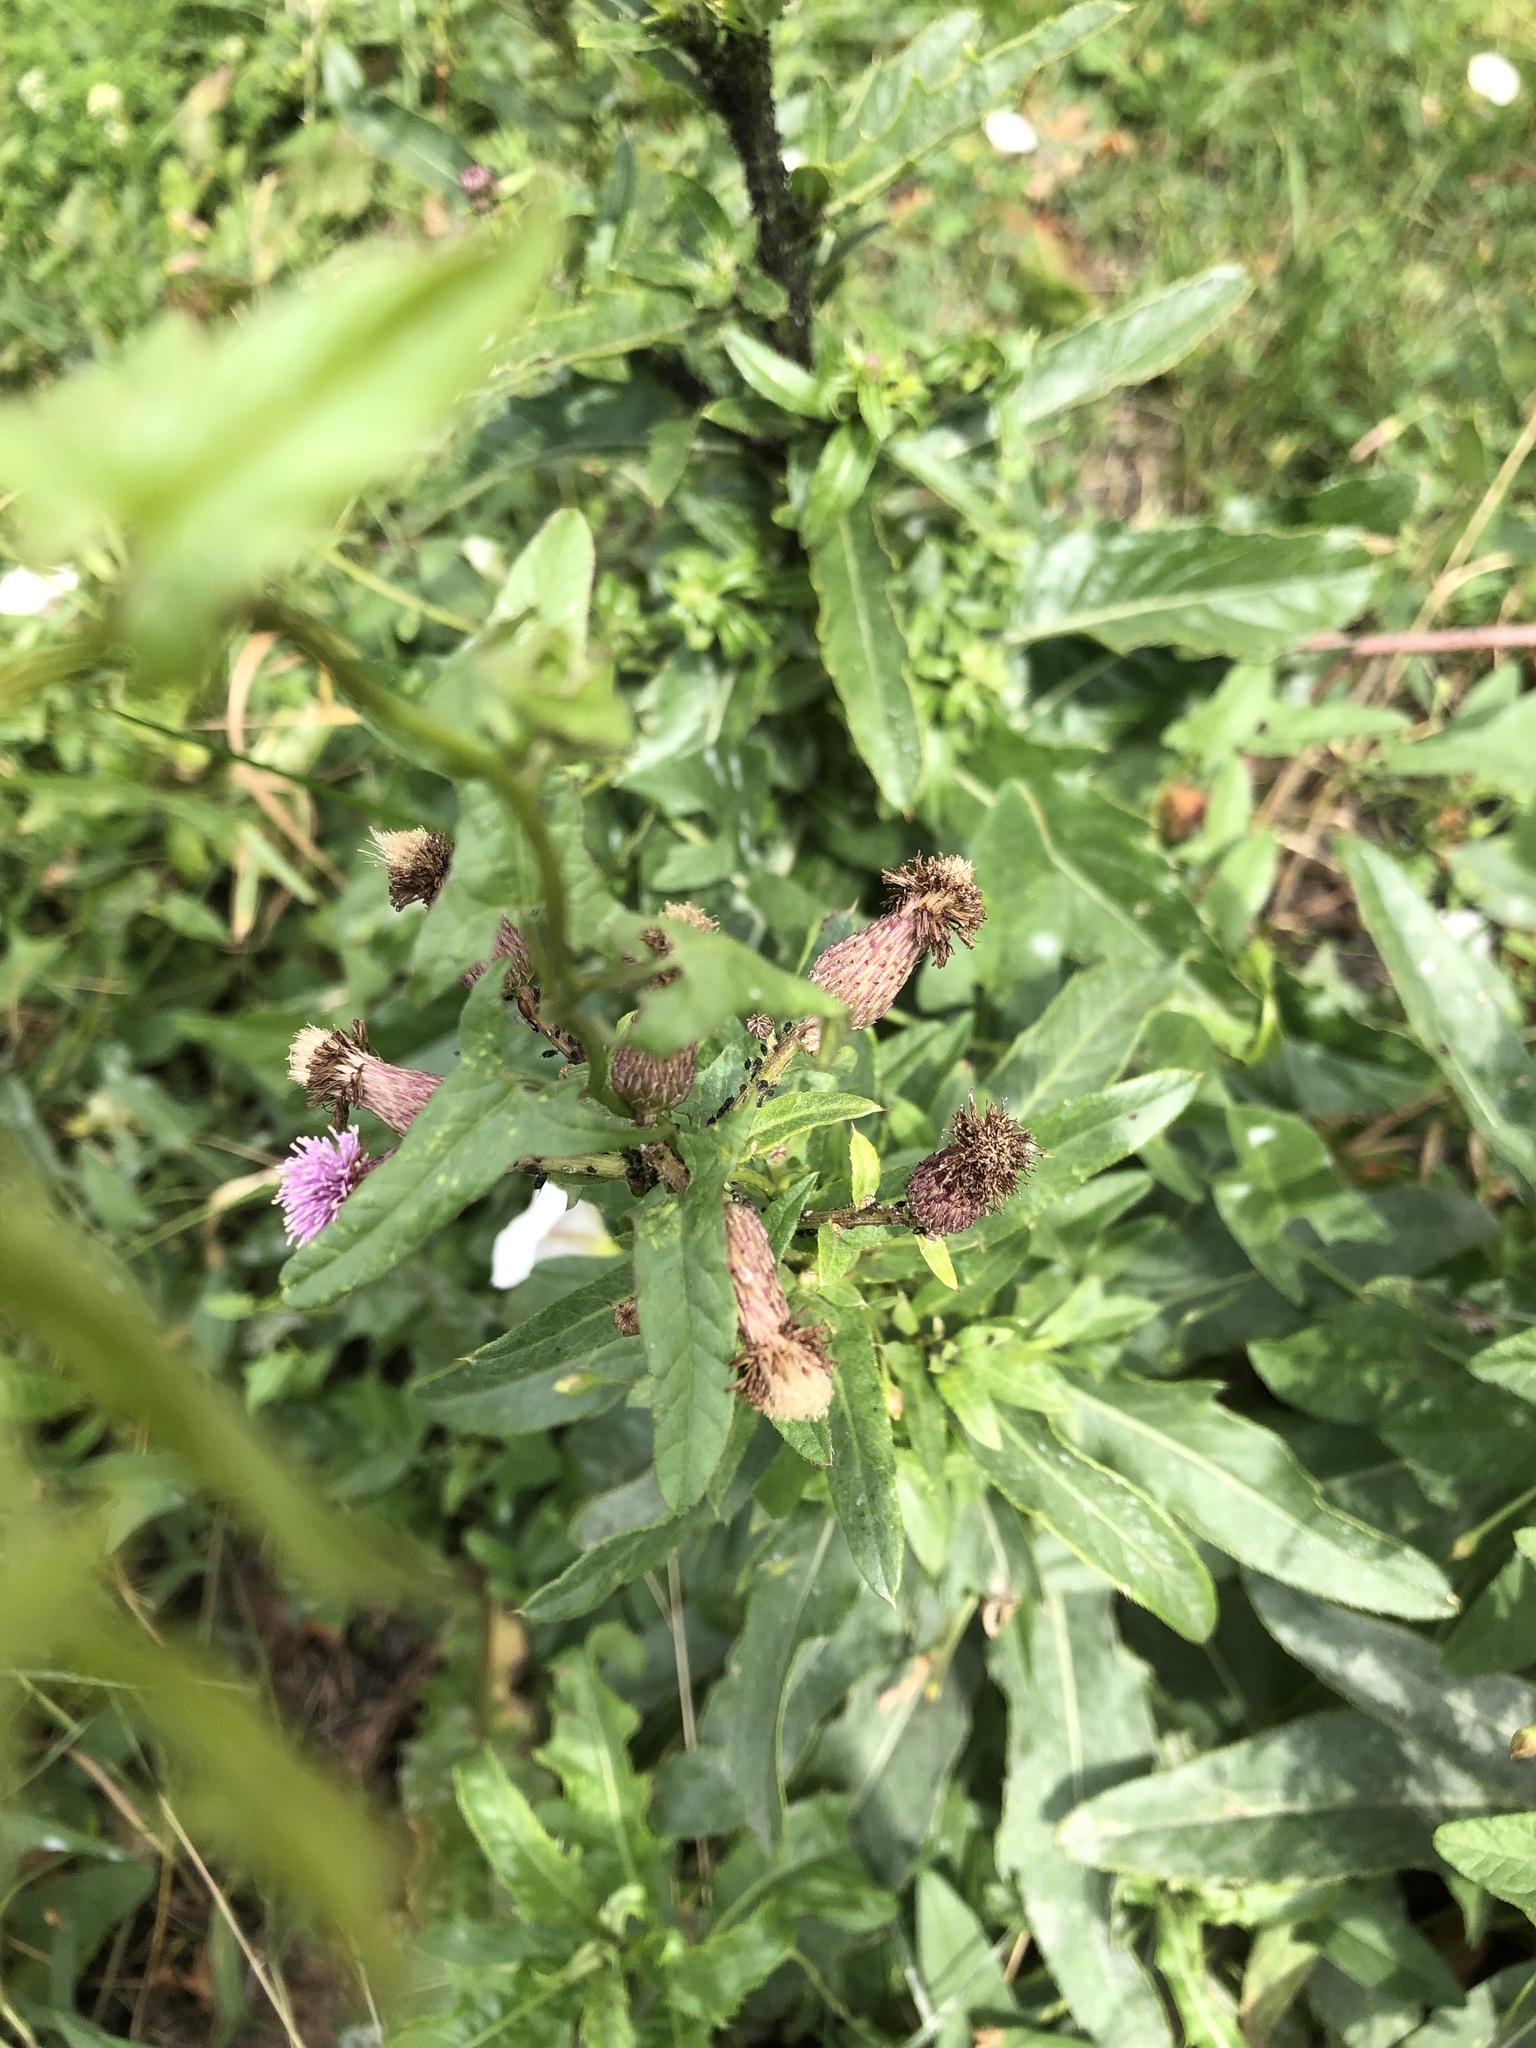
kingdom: Plantae
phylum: Tracheophyta
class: Magnoliopsida
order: Asterales
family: Asteraceae
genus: Cirsium
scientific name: Cirsium arvense
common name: Creeping thistle
